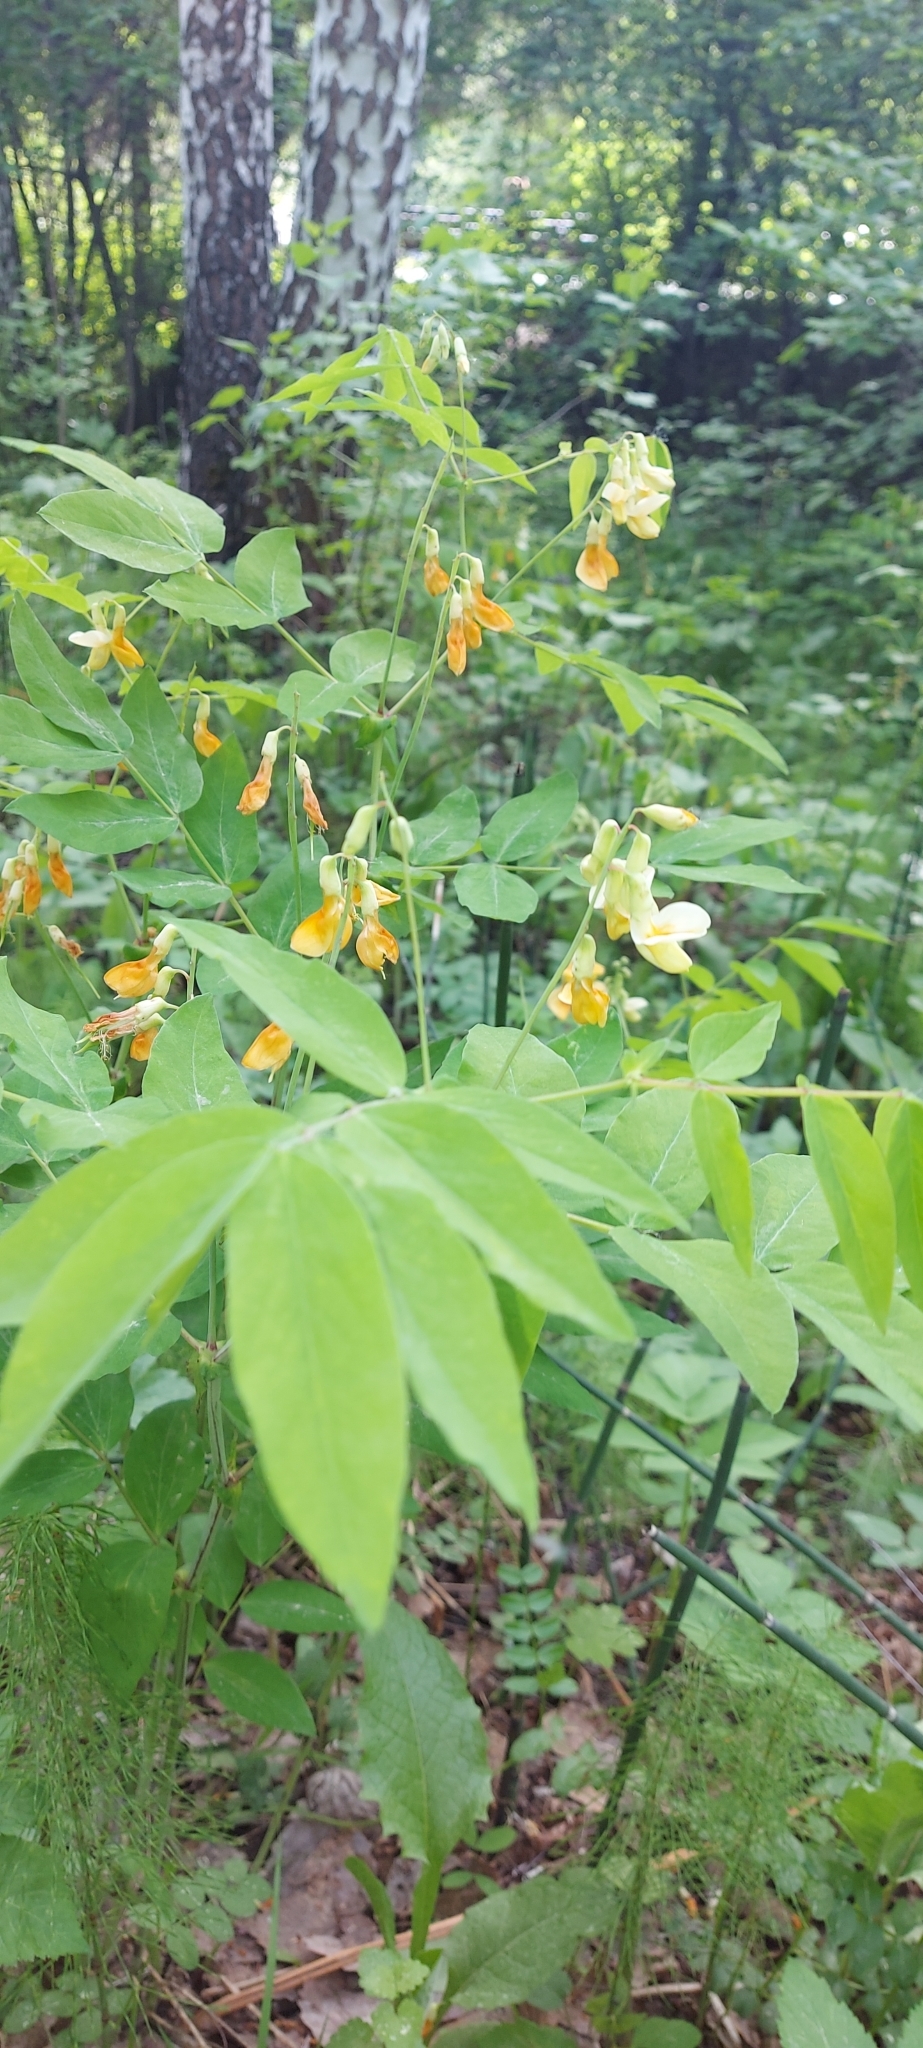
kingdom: Plantae
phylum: Tracheophyta
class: Magnoliopsida
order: Fabales
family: Fabaceae
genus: Lathyrus
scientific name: Lathyrus gmelinii
